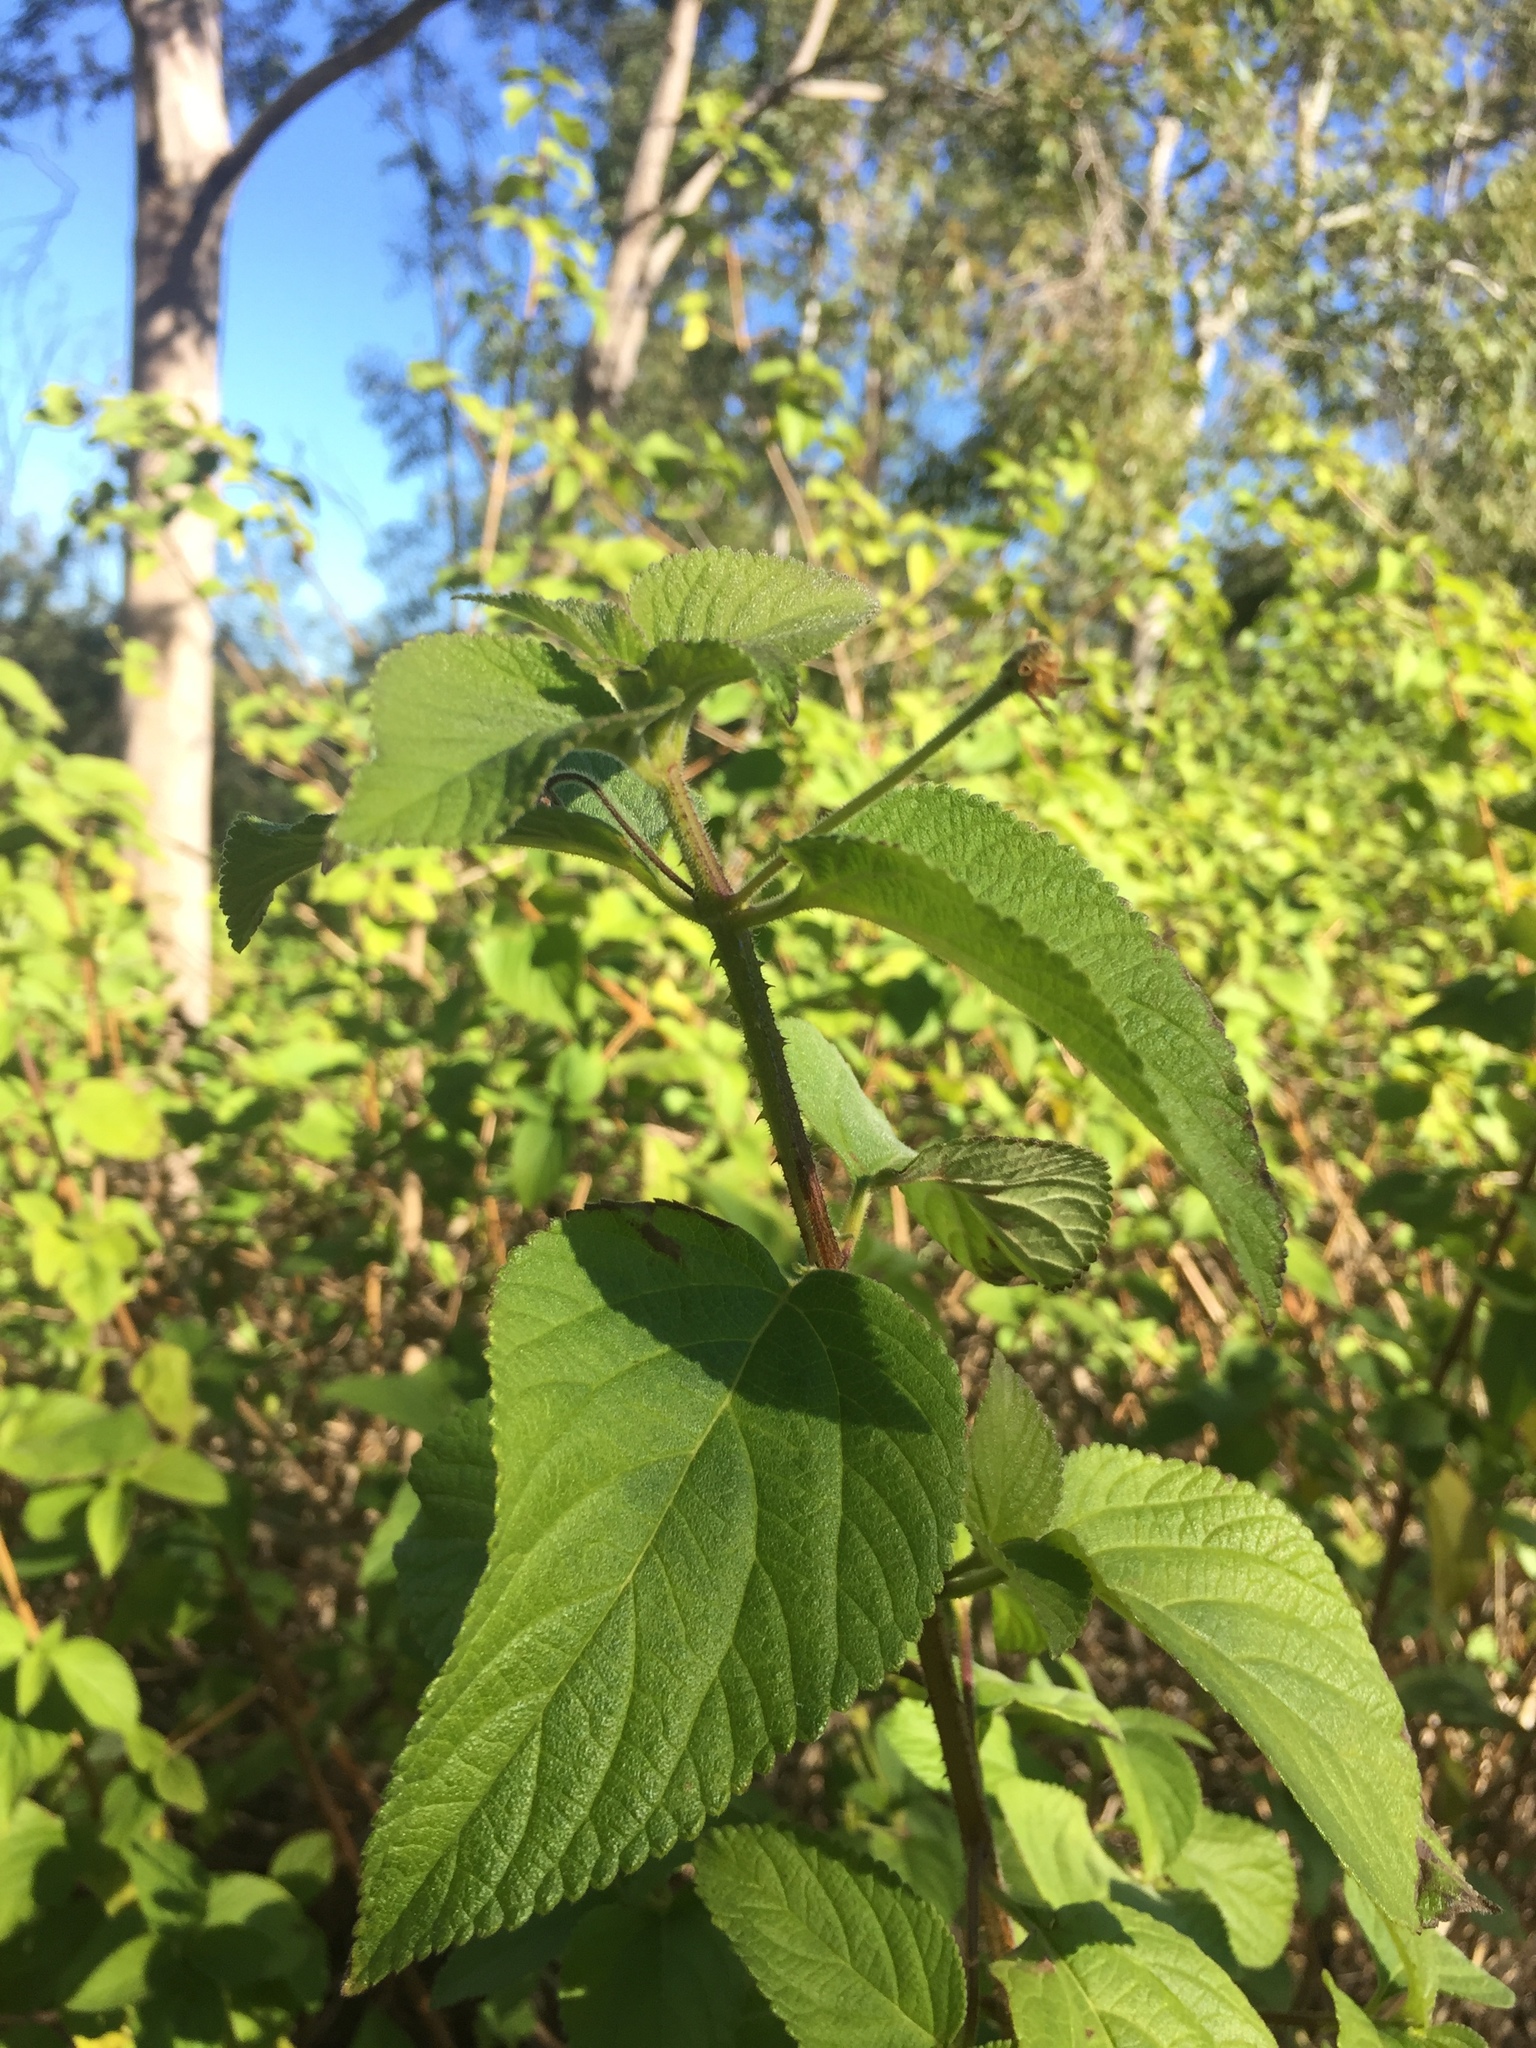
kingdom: Plantae
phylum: Tracheophyta
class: Magnoliopsida
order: Lamiales
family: Verbenaceae
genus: Lantana
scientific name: Lantana camara
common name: Lantana
